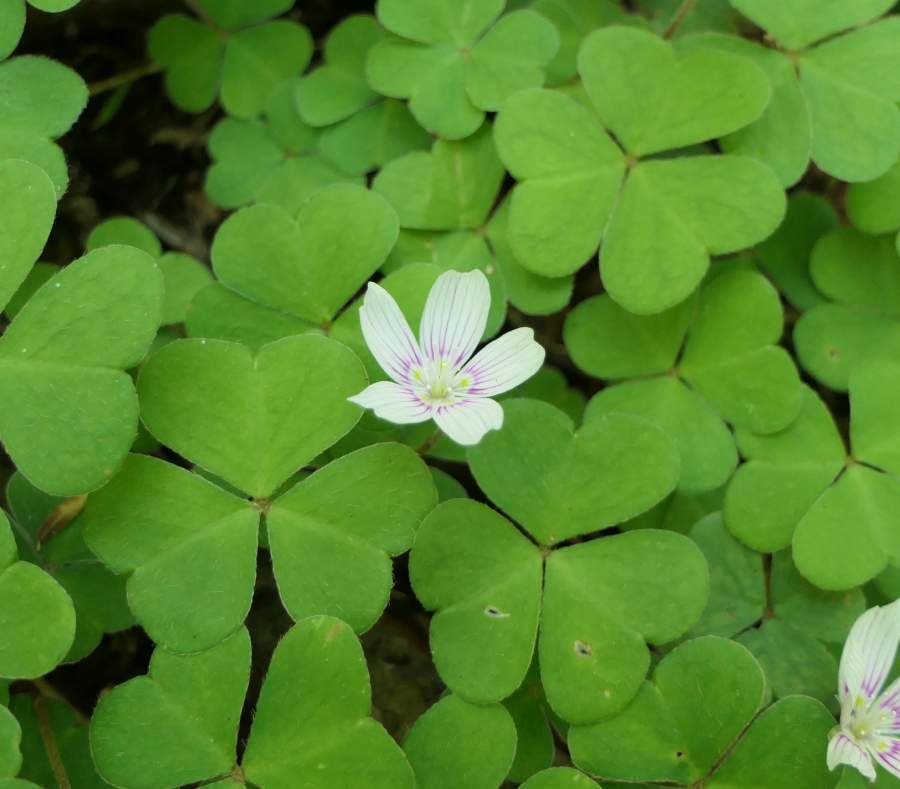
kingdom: Plantae
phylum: Tracheophyta
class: Magnoliopsida
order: Oxalidales
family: Oxalidaceae
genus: Oxalis
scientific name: Oxalis montana
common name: American wood-sorrel
